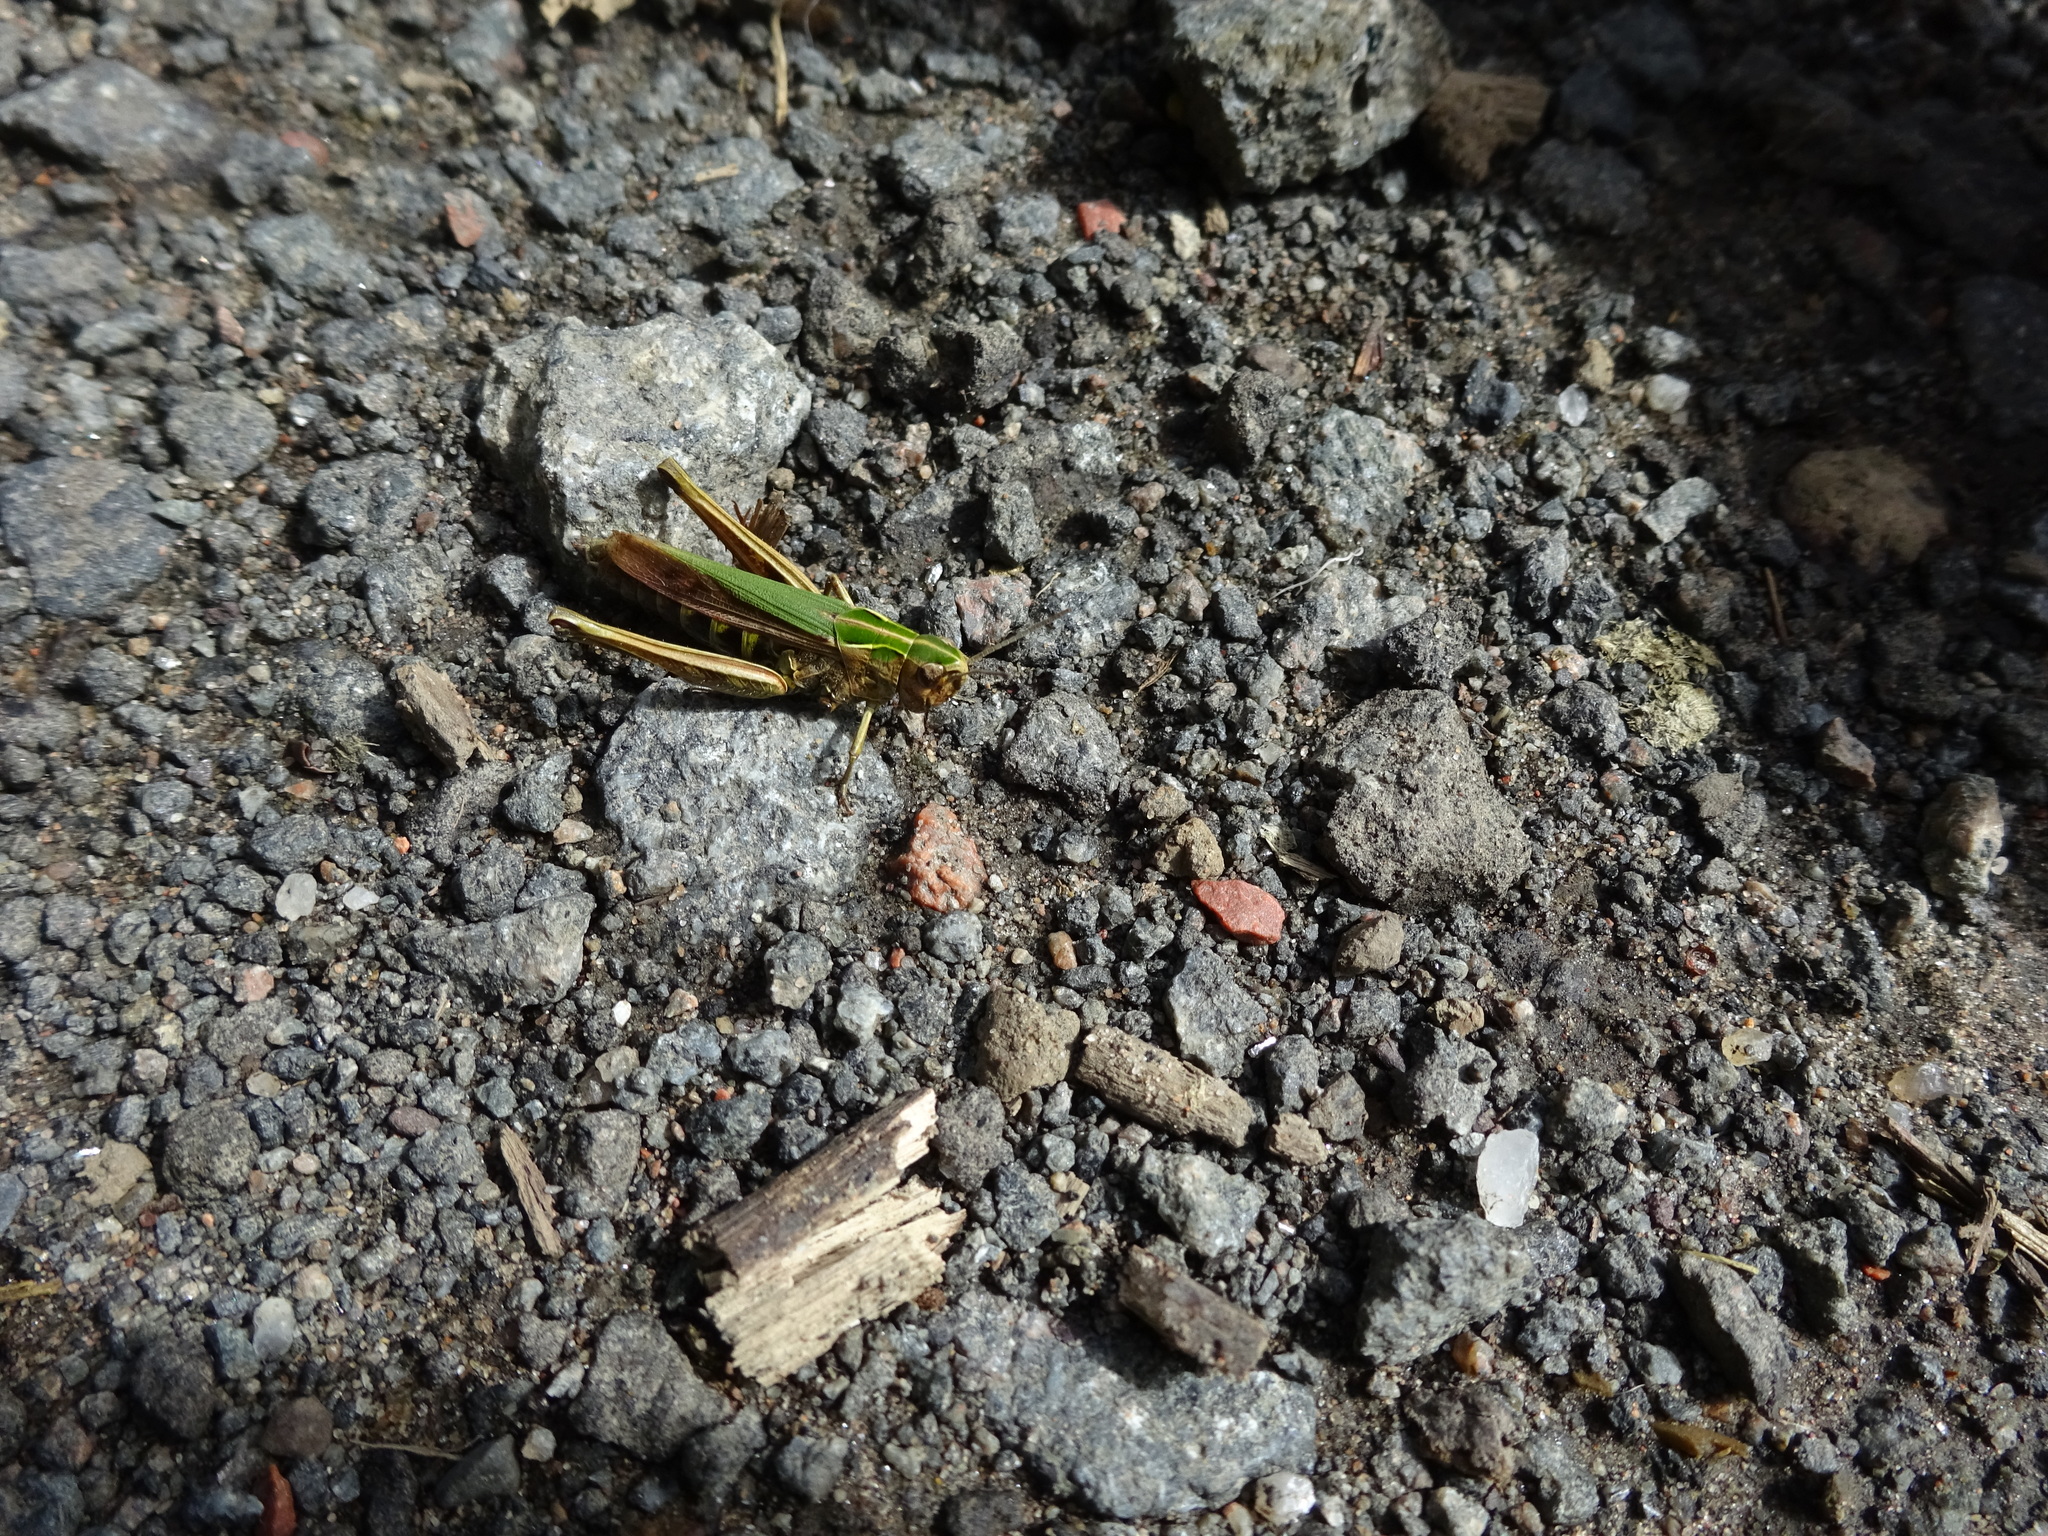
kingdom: Animalia
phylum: Arthropoda
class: Insecta
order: Orthoptera
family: Acrididae
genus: Omocestus
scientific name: Omocestus viridulus
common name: Common green grasshopper
